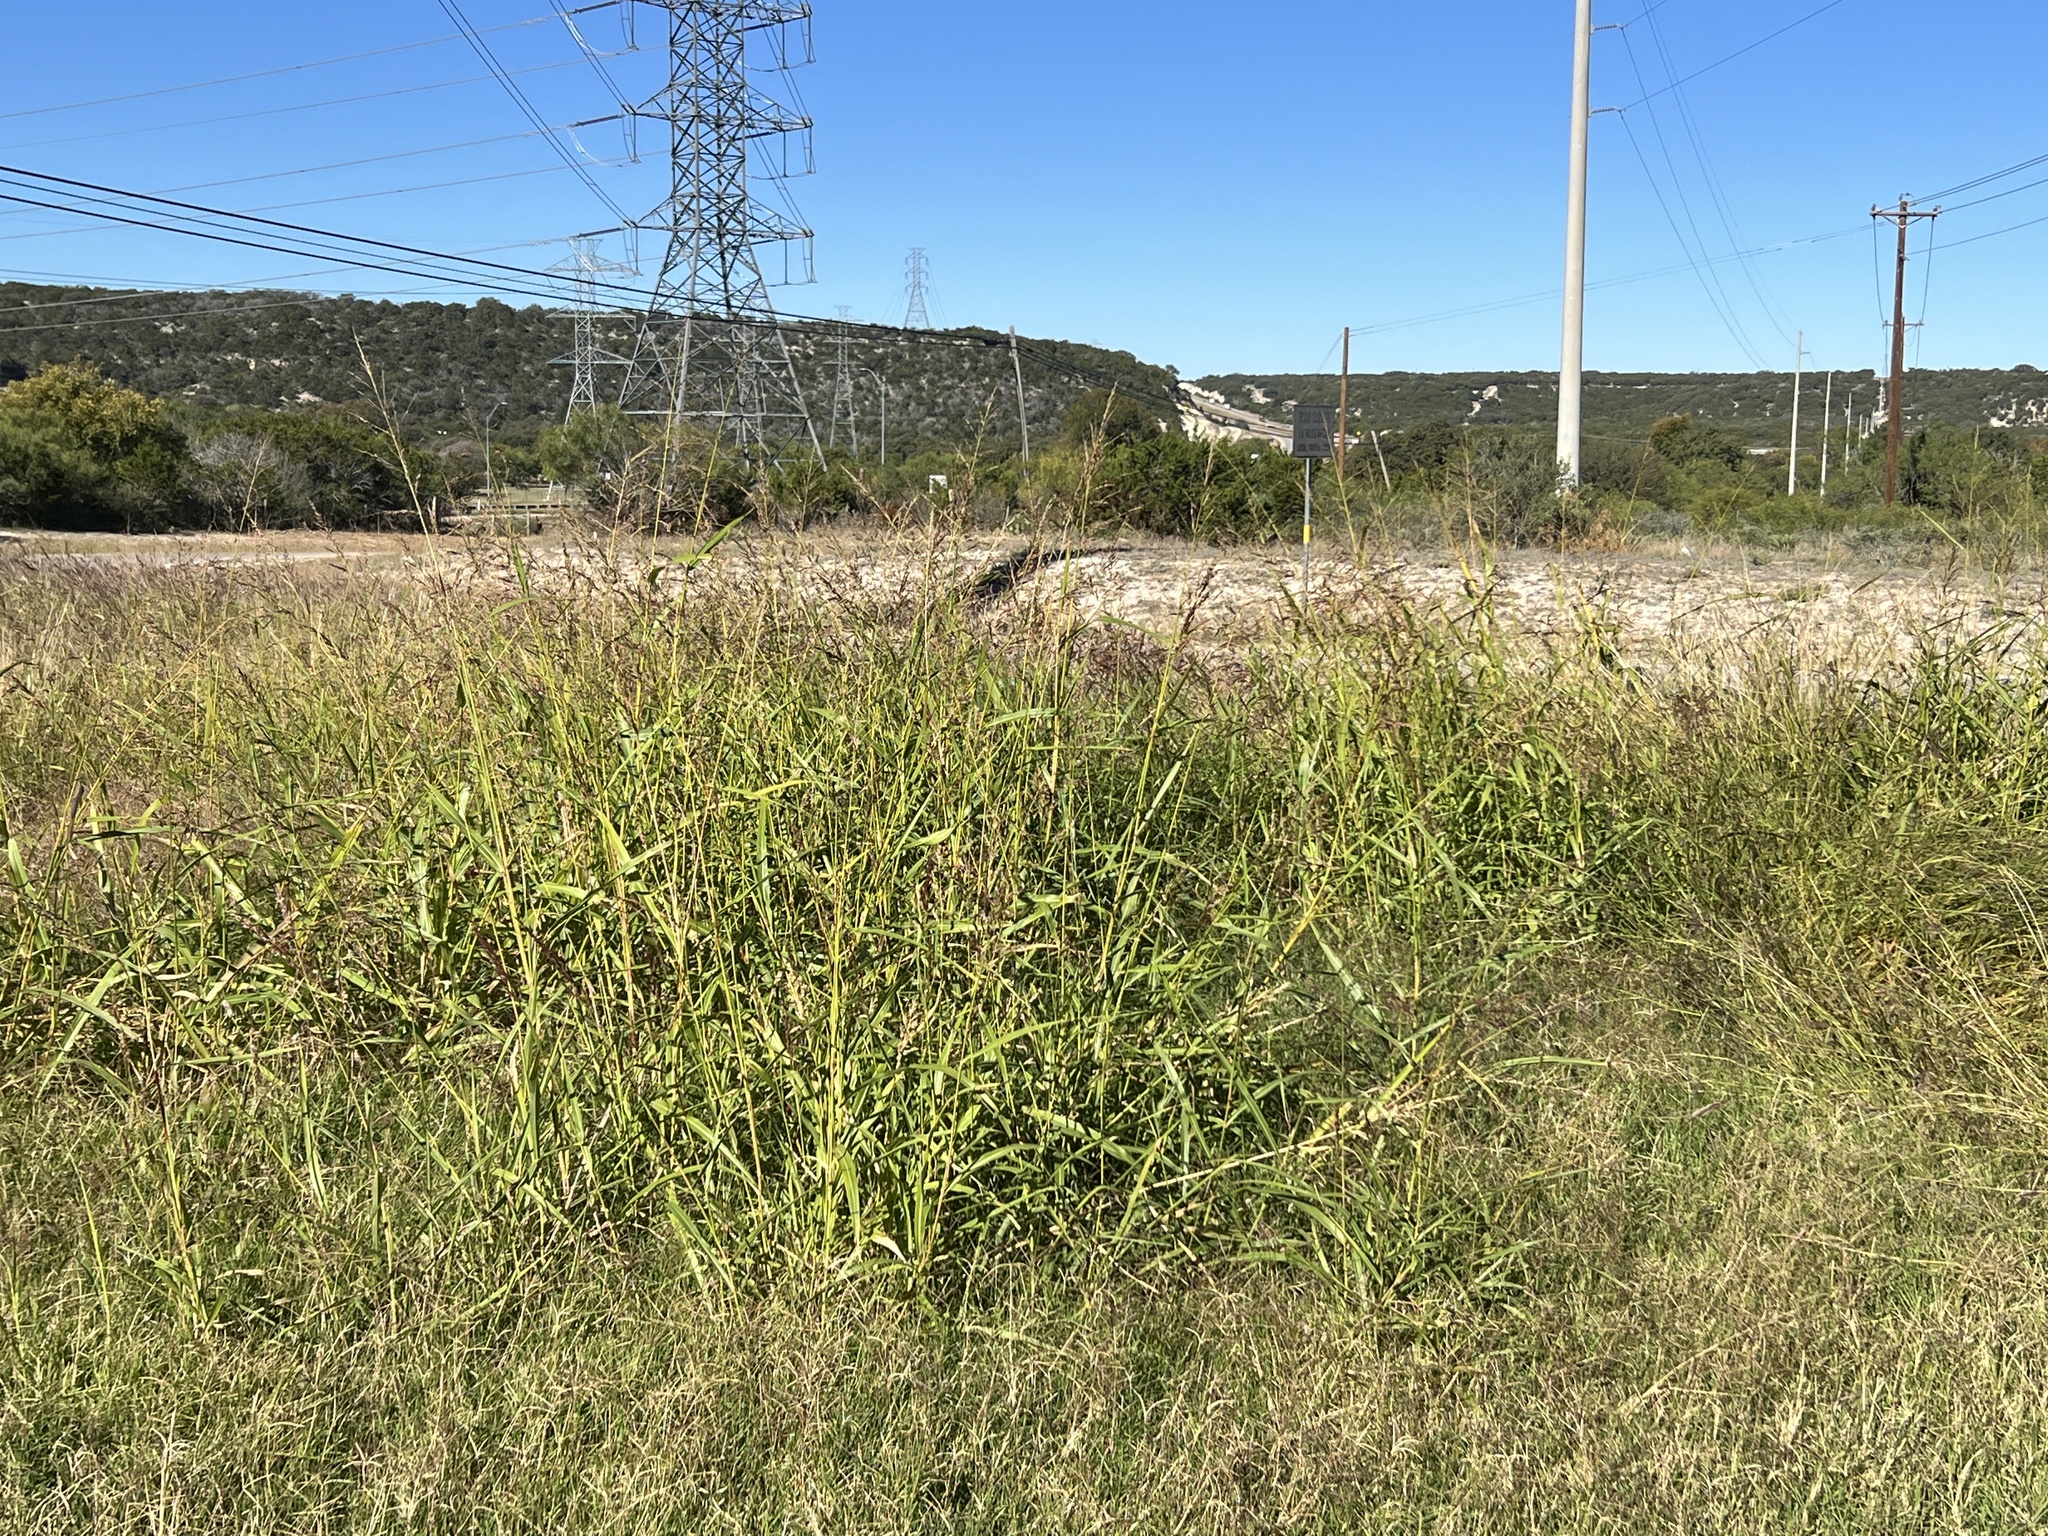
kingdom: Plantae
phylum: Tracheophyta
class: Liliopsida
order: Poales
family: Poaceae
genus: Sorghum
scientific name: Sorghum halepense
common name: Johnson-grass
